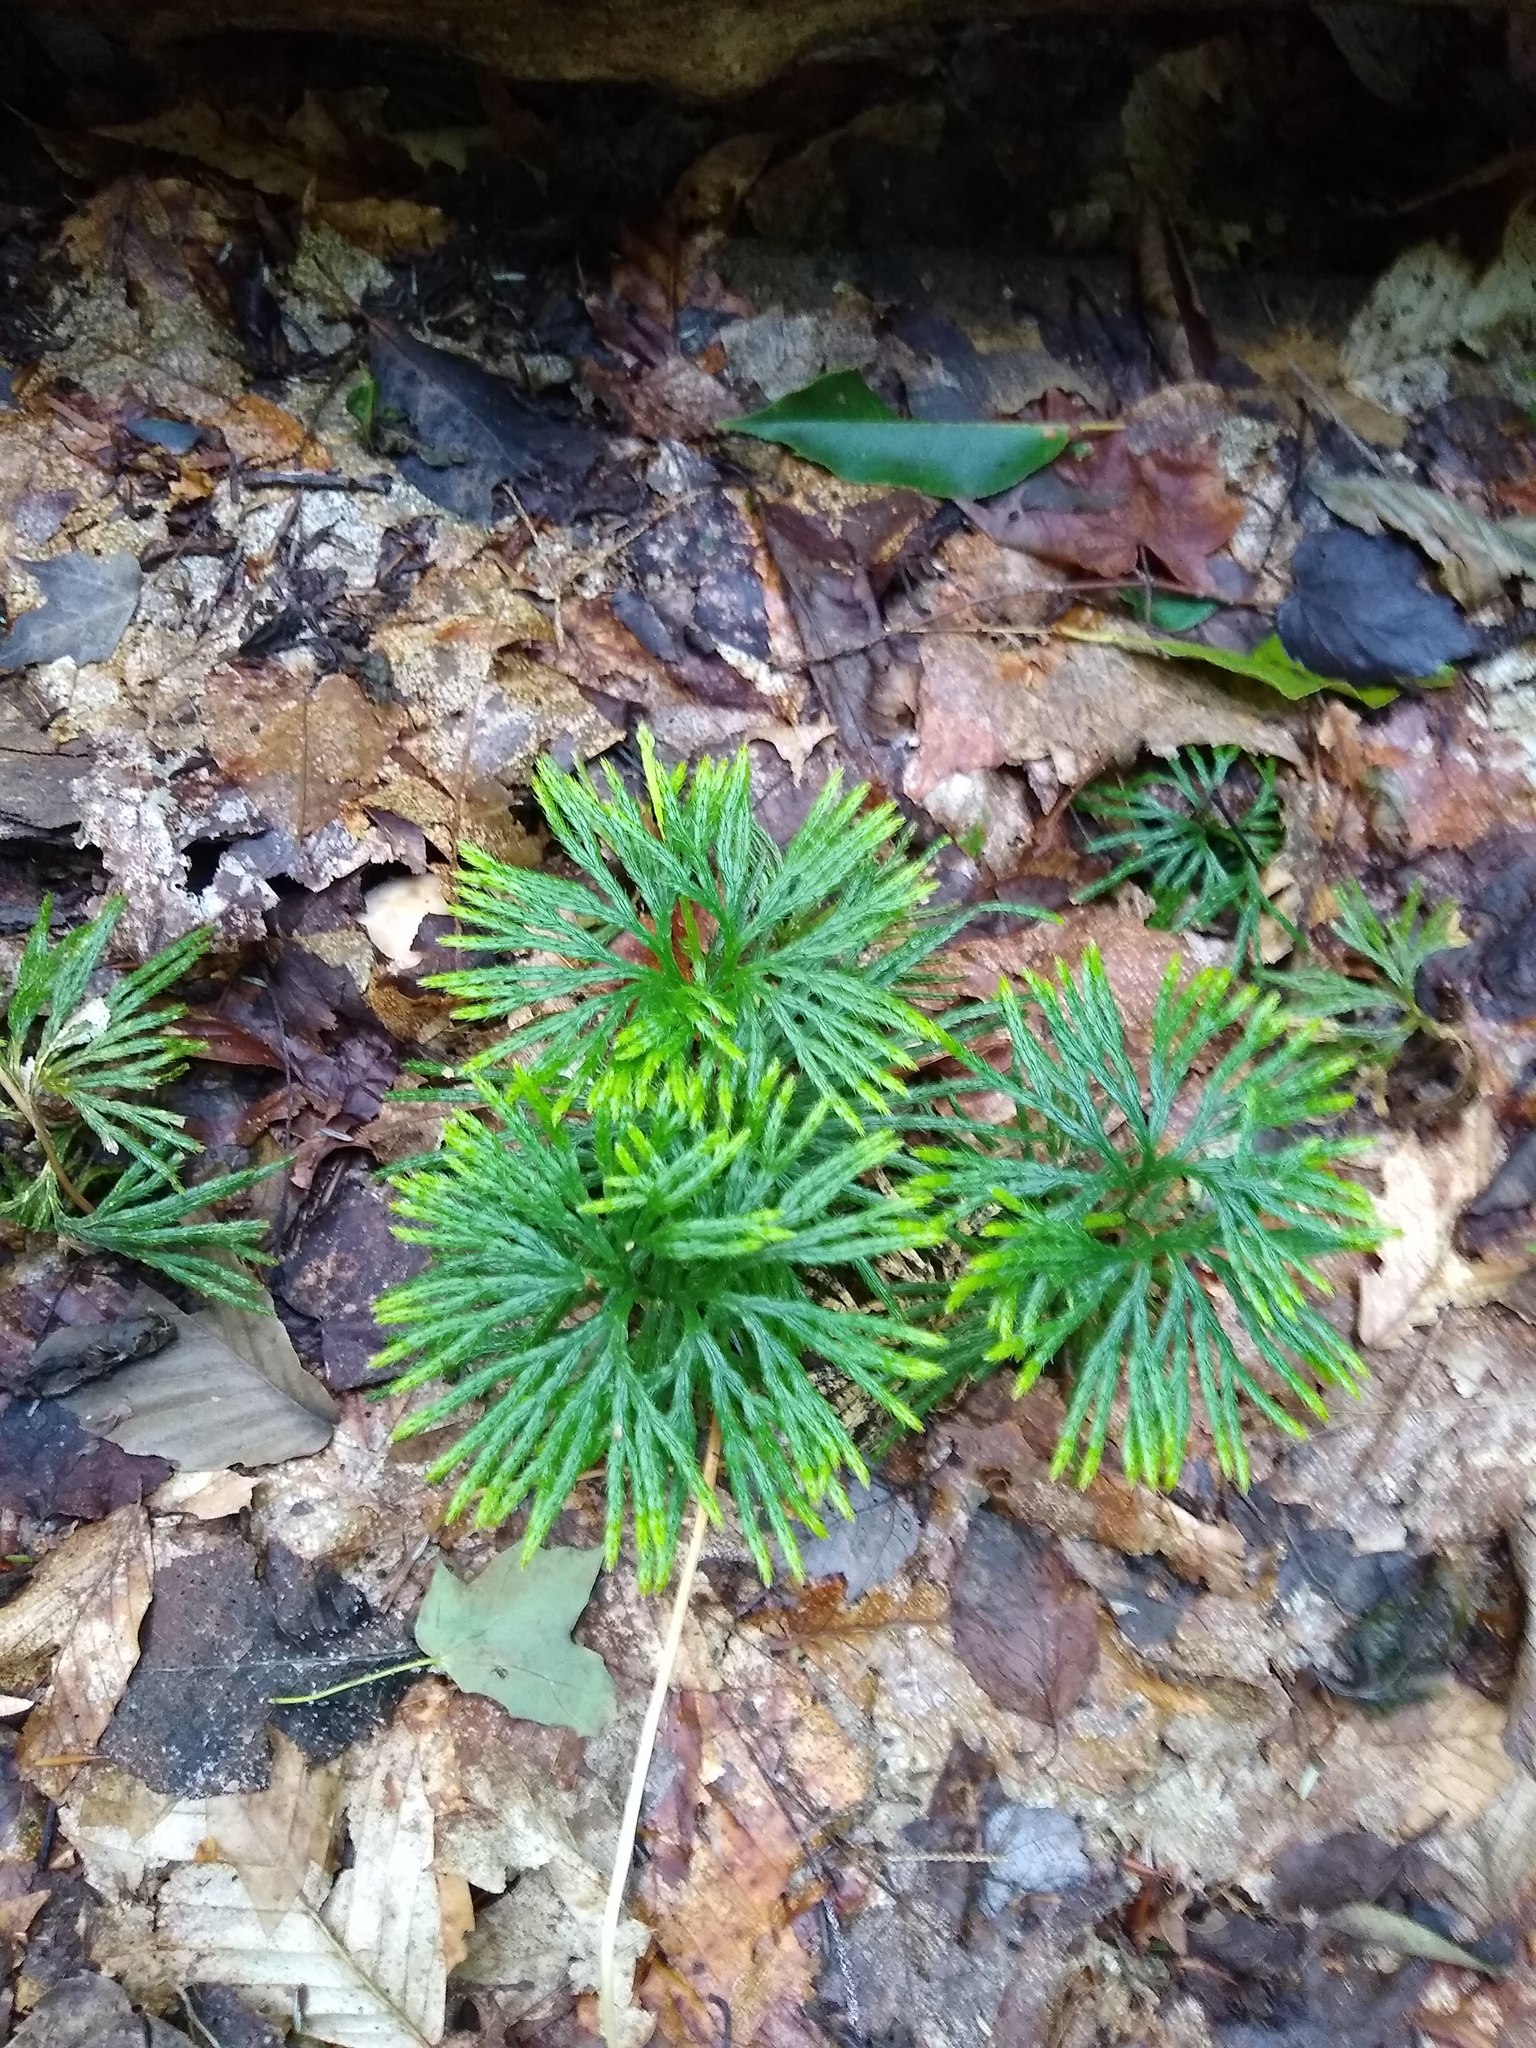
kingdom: Plantae
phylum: Tracheophyta
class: Lycopodiopsida
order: Lycopodiales
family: Lycopodiaceae
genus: Diphasiastrum
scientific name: Diphasiastrum digitatum
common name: Southern running-pine
